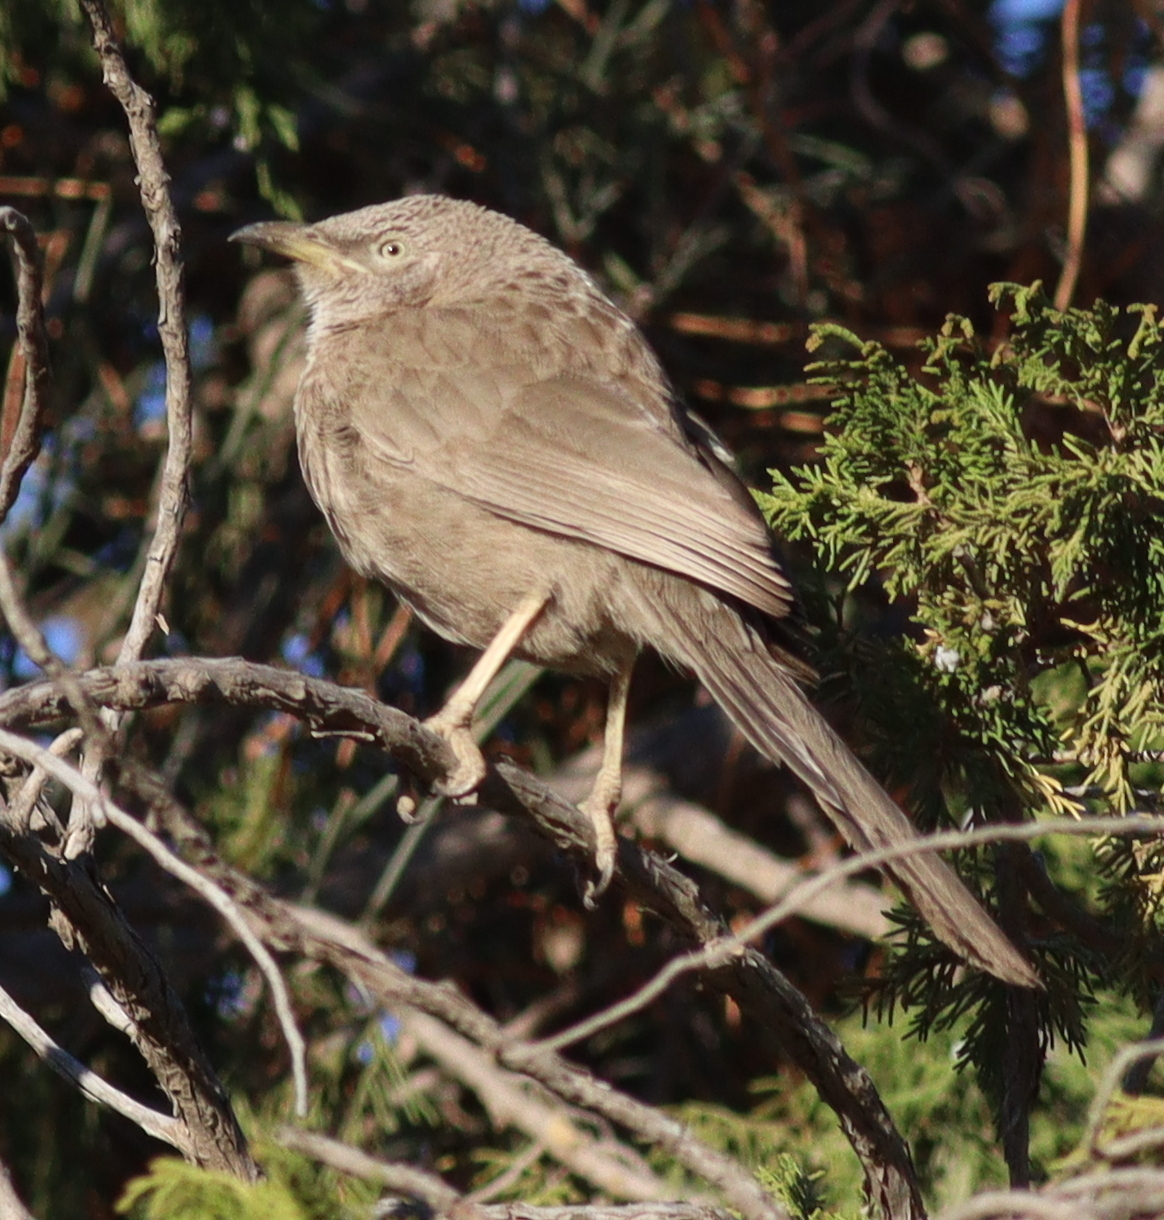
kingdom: Animalia
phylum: Chordata
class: Aves
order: Passeriformes
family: Leiothrichidae
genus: Turdoides
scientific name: Turdoides squamiceps
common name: Arabian babbler
